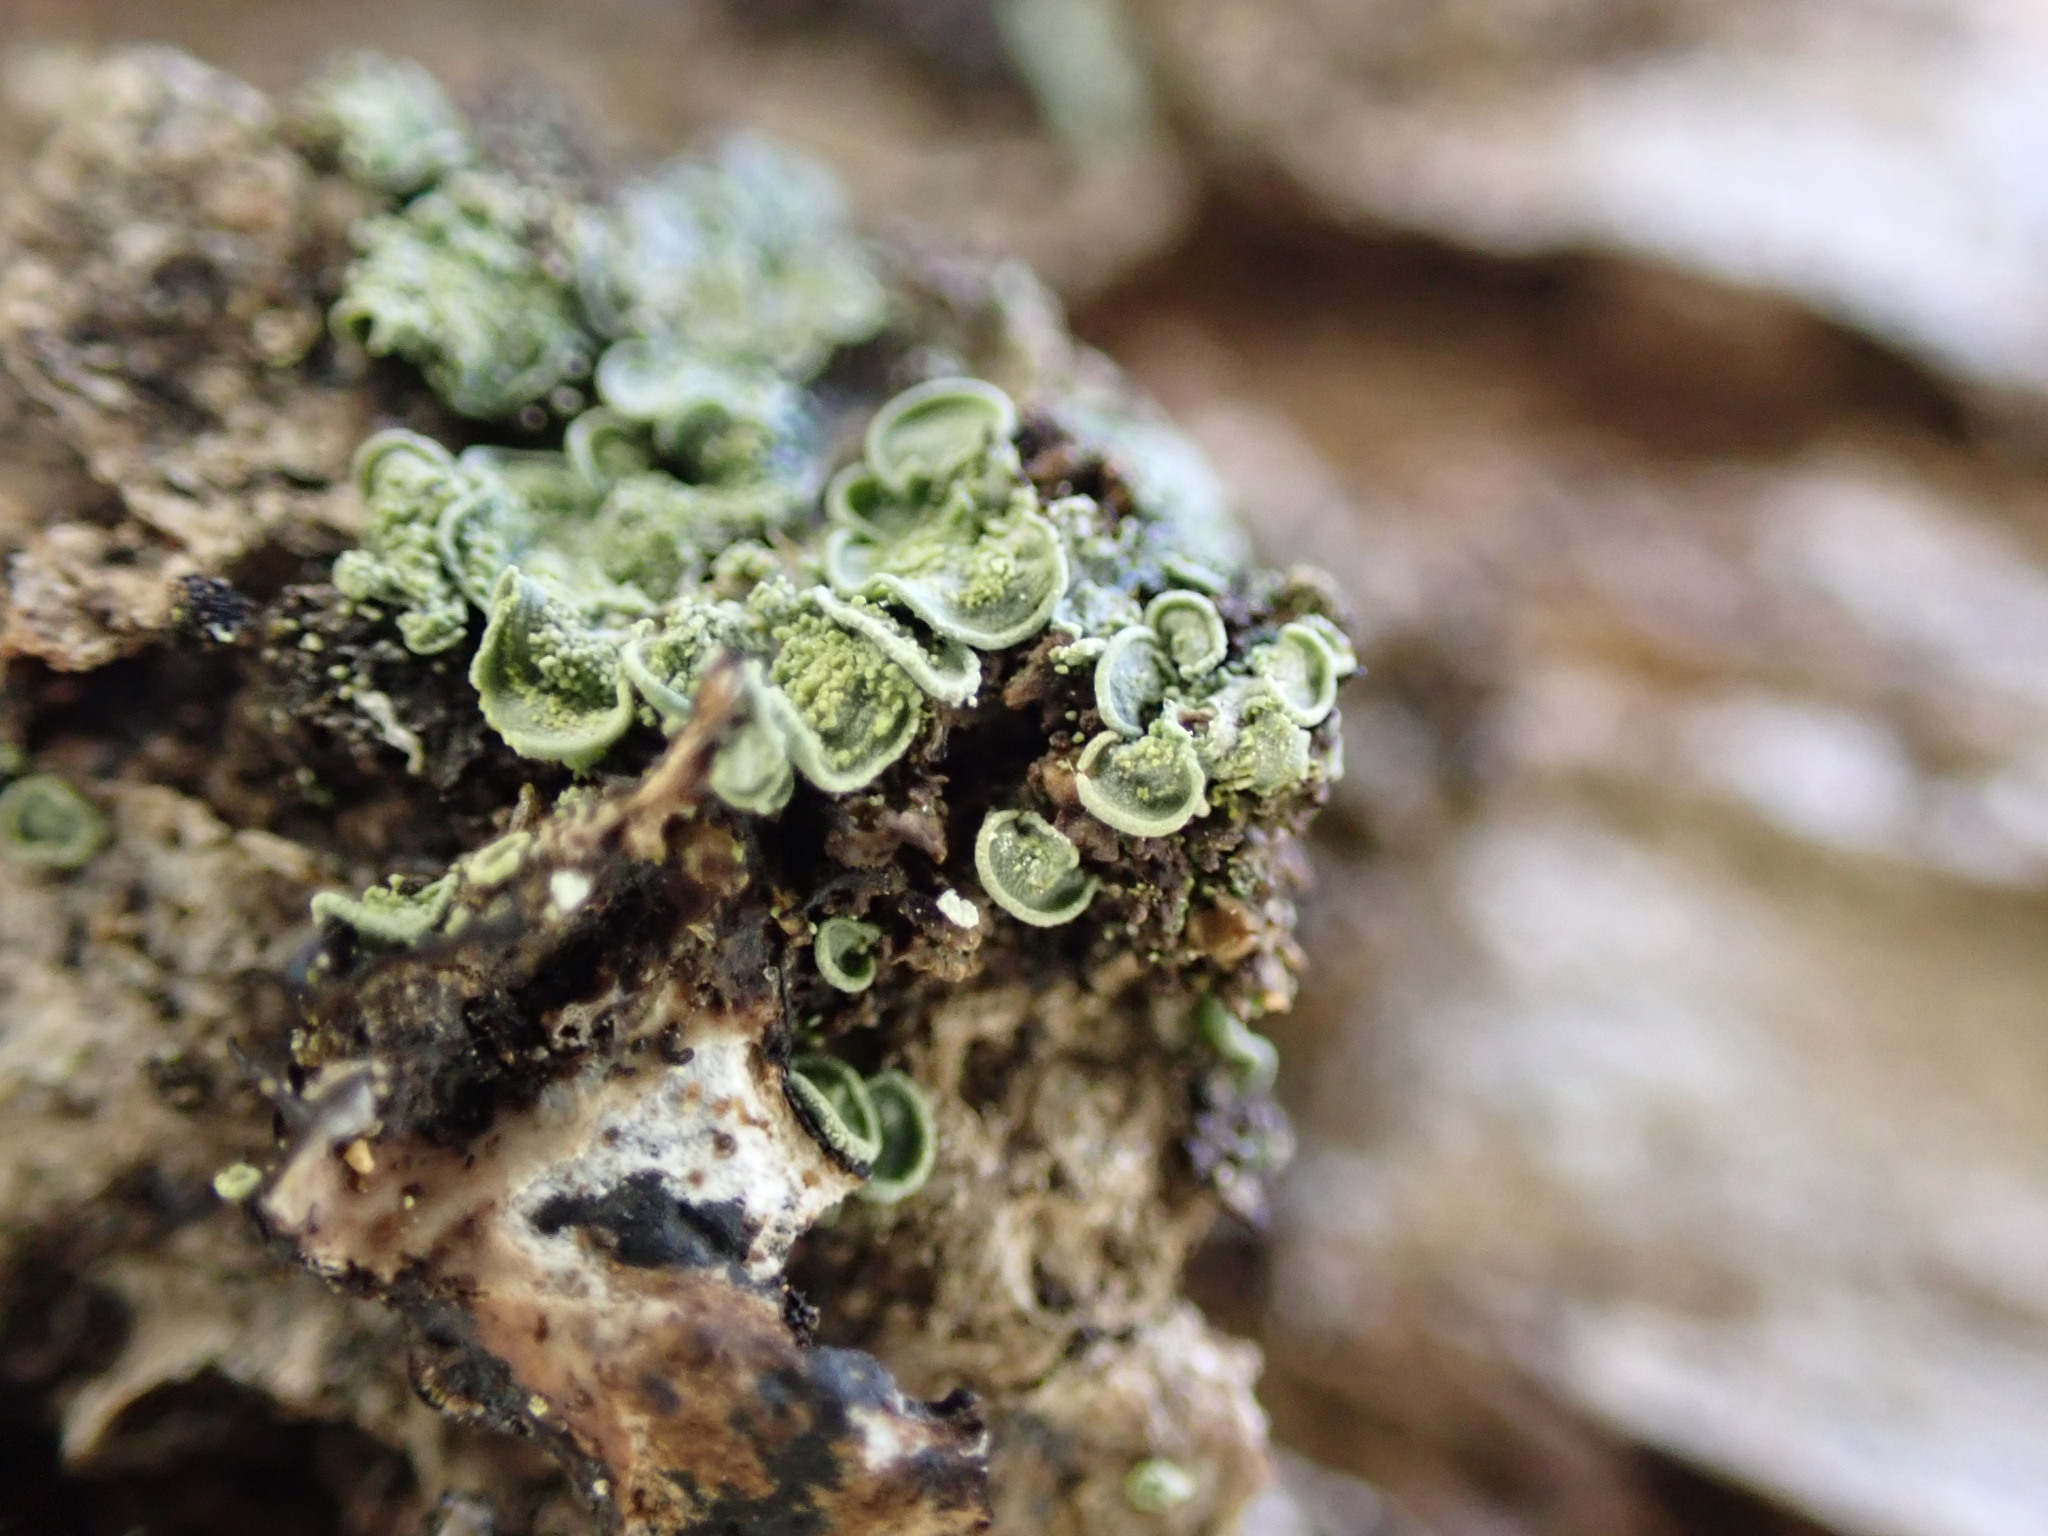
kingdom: Fungi
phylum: Ascomycota
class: Eurotiomycetes
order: Verrucariales
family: Verrucariaceae
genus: Normandina
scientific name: Normandina pulchella
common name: Elf ears lichen
